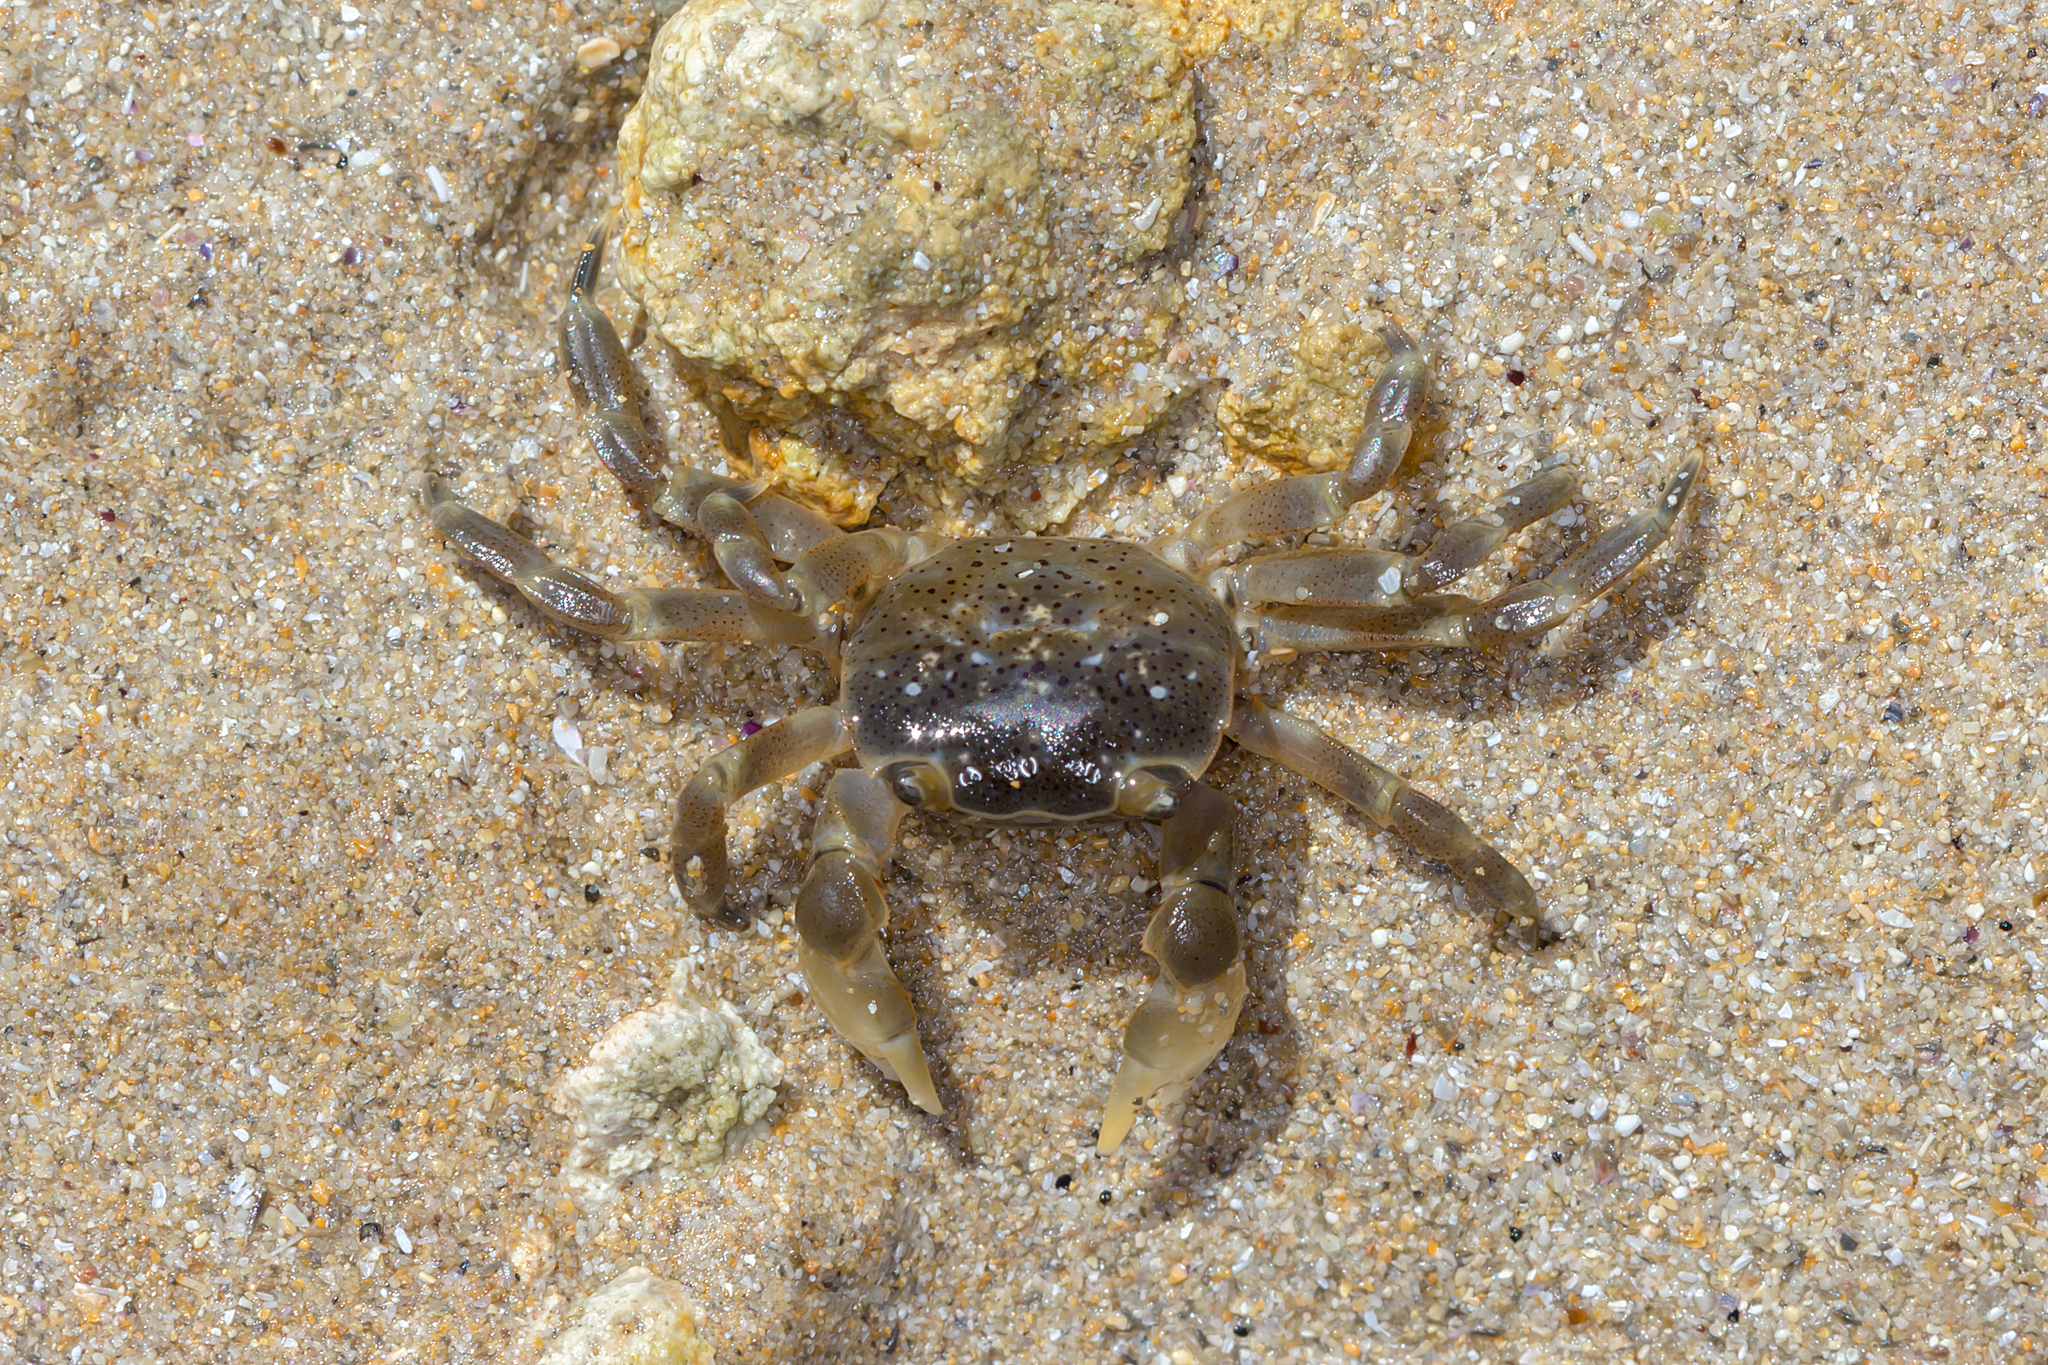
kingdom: Animalia
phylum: Arthropoda
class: Malacostraca
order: Decapoda
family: Varunidae
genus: Paragrapsus
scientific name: Paragrapsus quadridentatus
